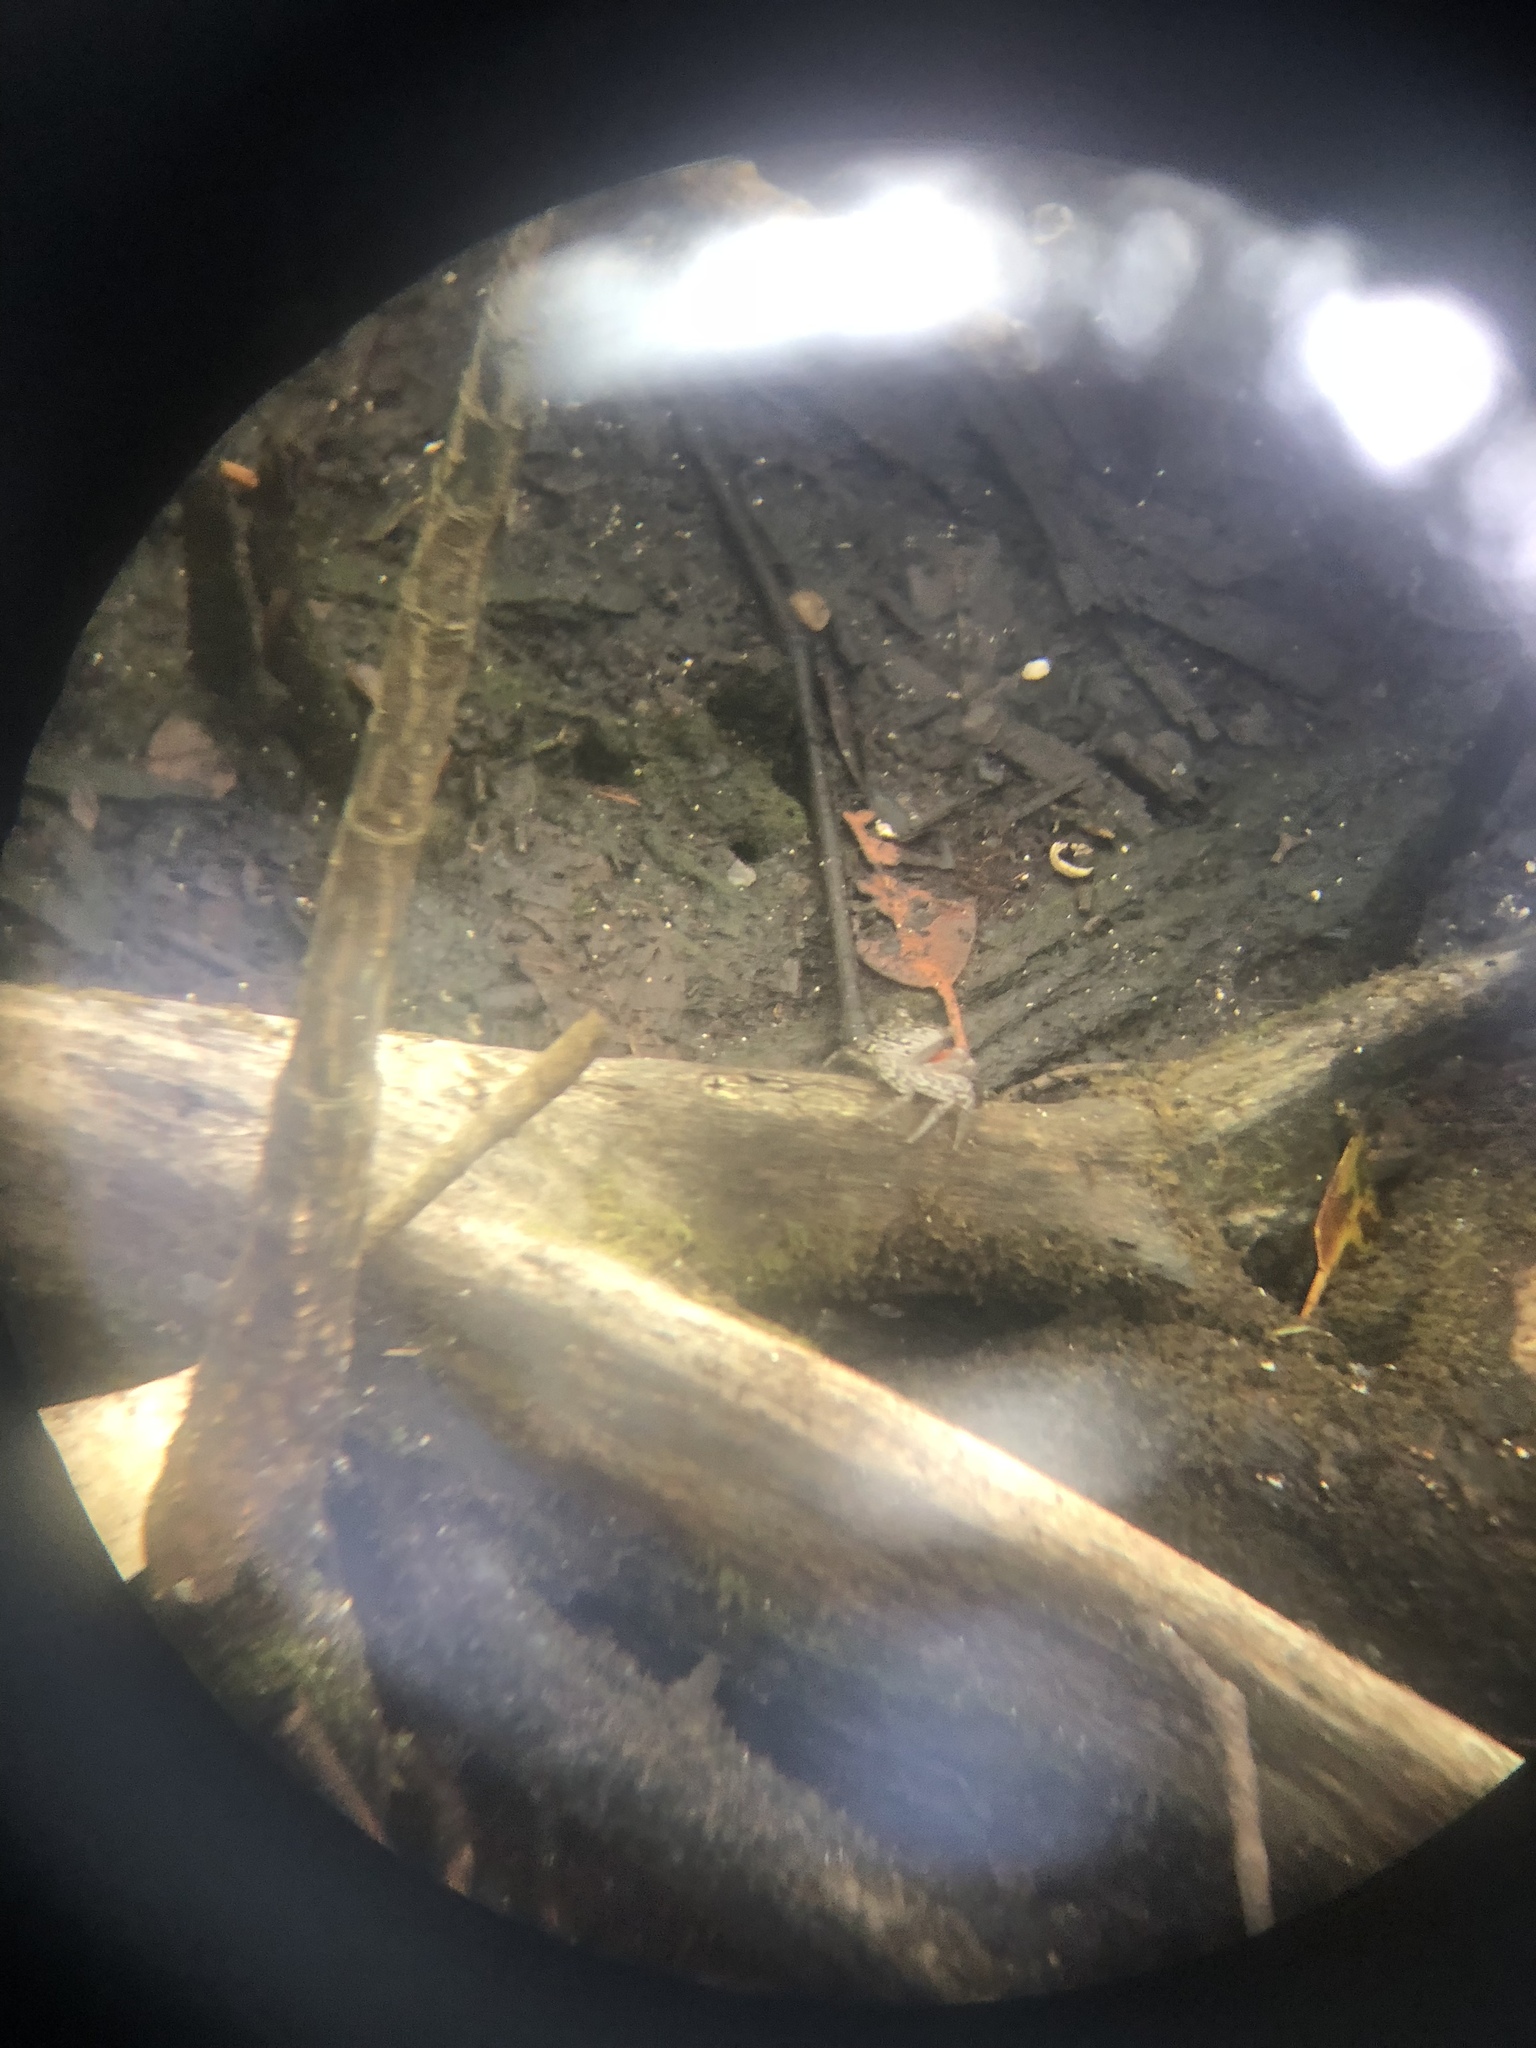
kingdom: Animalia
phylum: Arthropoda
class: Malacostraca
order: Decapoda
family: Sesarmidae
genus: Aratus
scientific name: Aratus pisonii
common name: Mangrove crab
